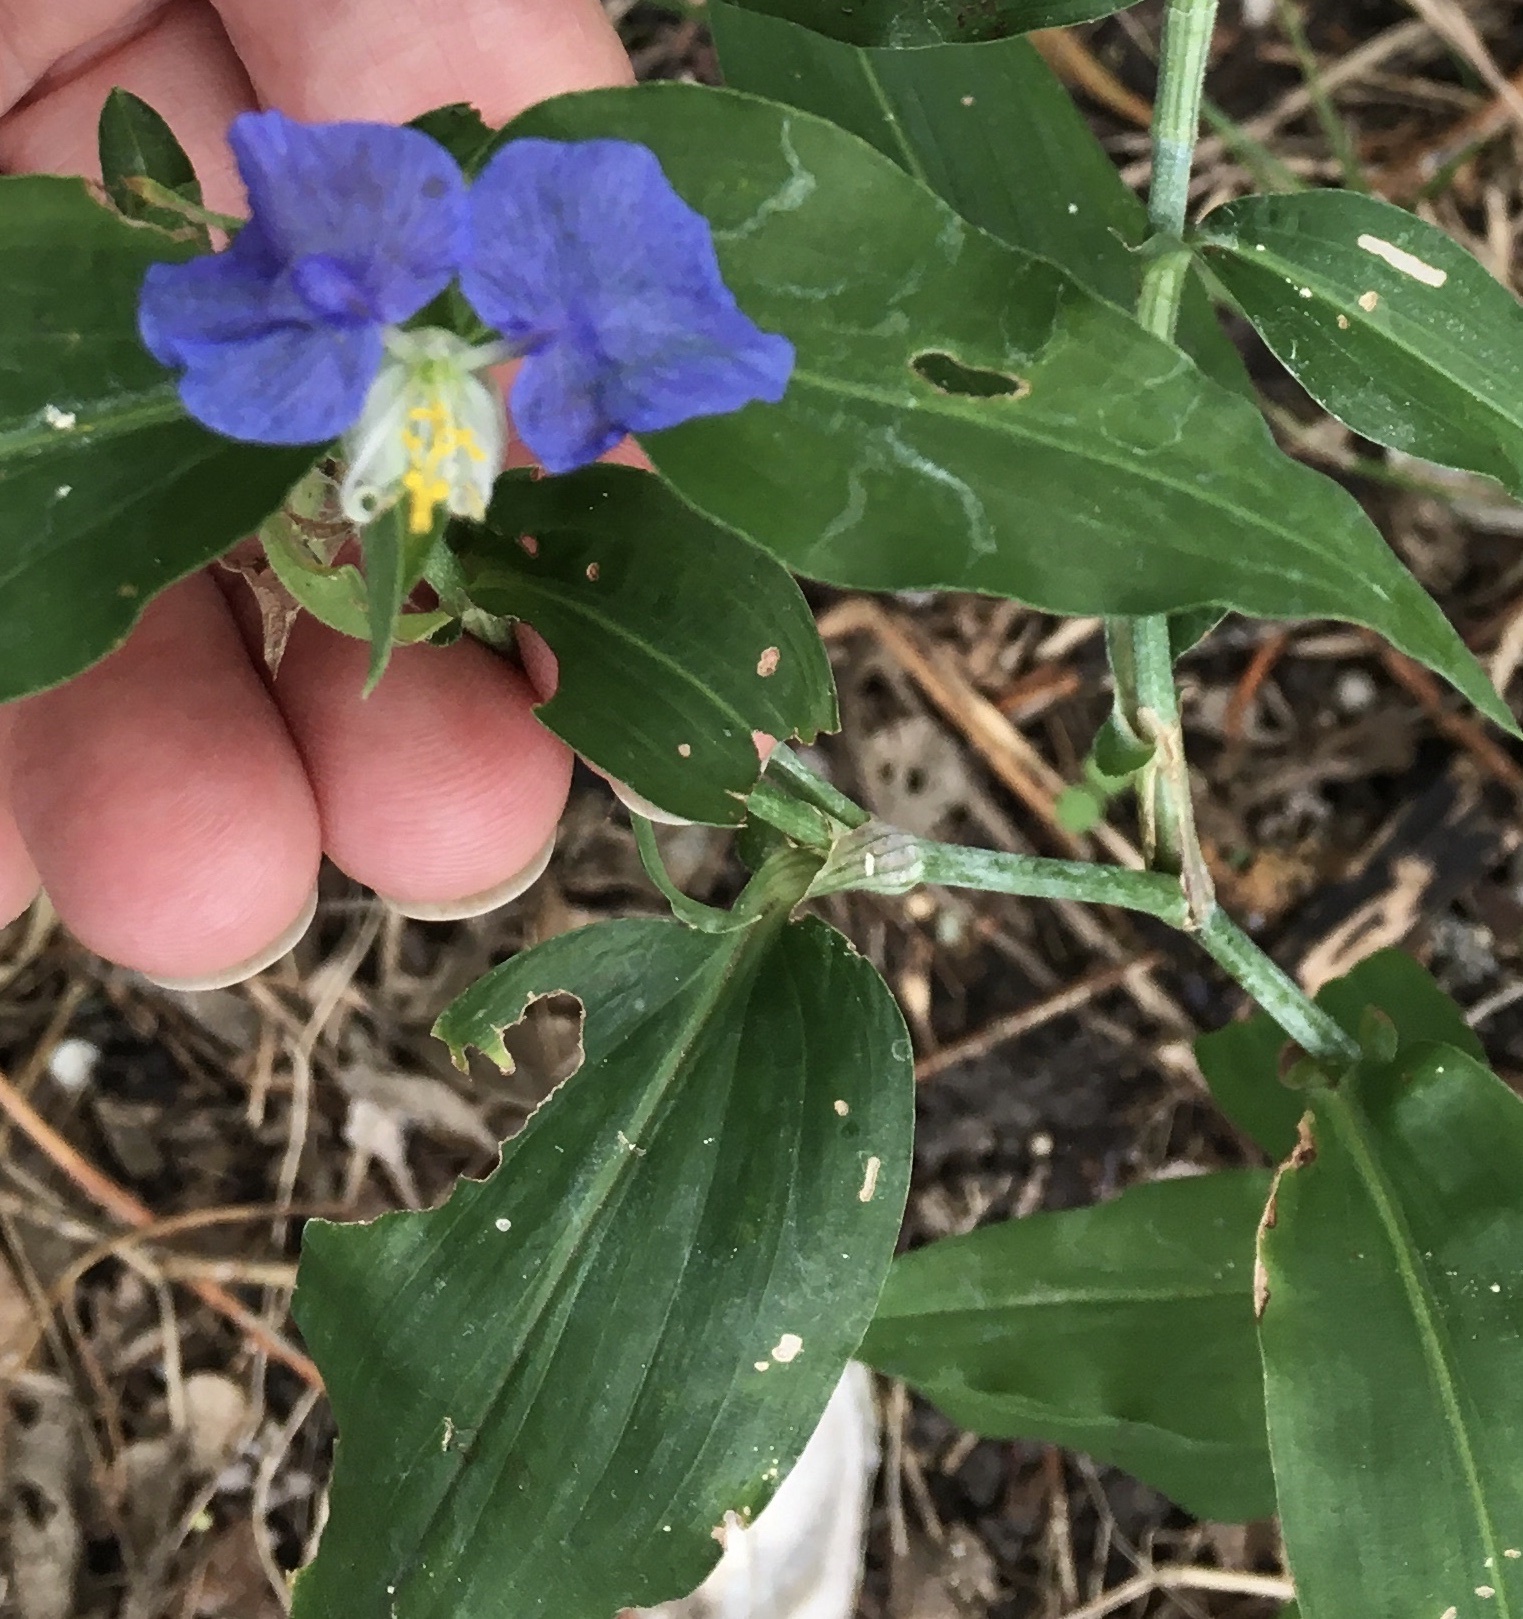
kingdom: Plantae
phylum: Tracheophyta
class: Liliopsida
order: Commelinales
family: Commelinaceae
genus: Commelina
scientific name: Commelina erecta
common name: Blousel blommetjie
